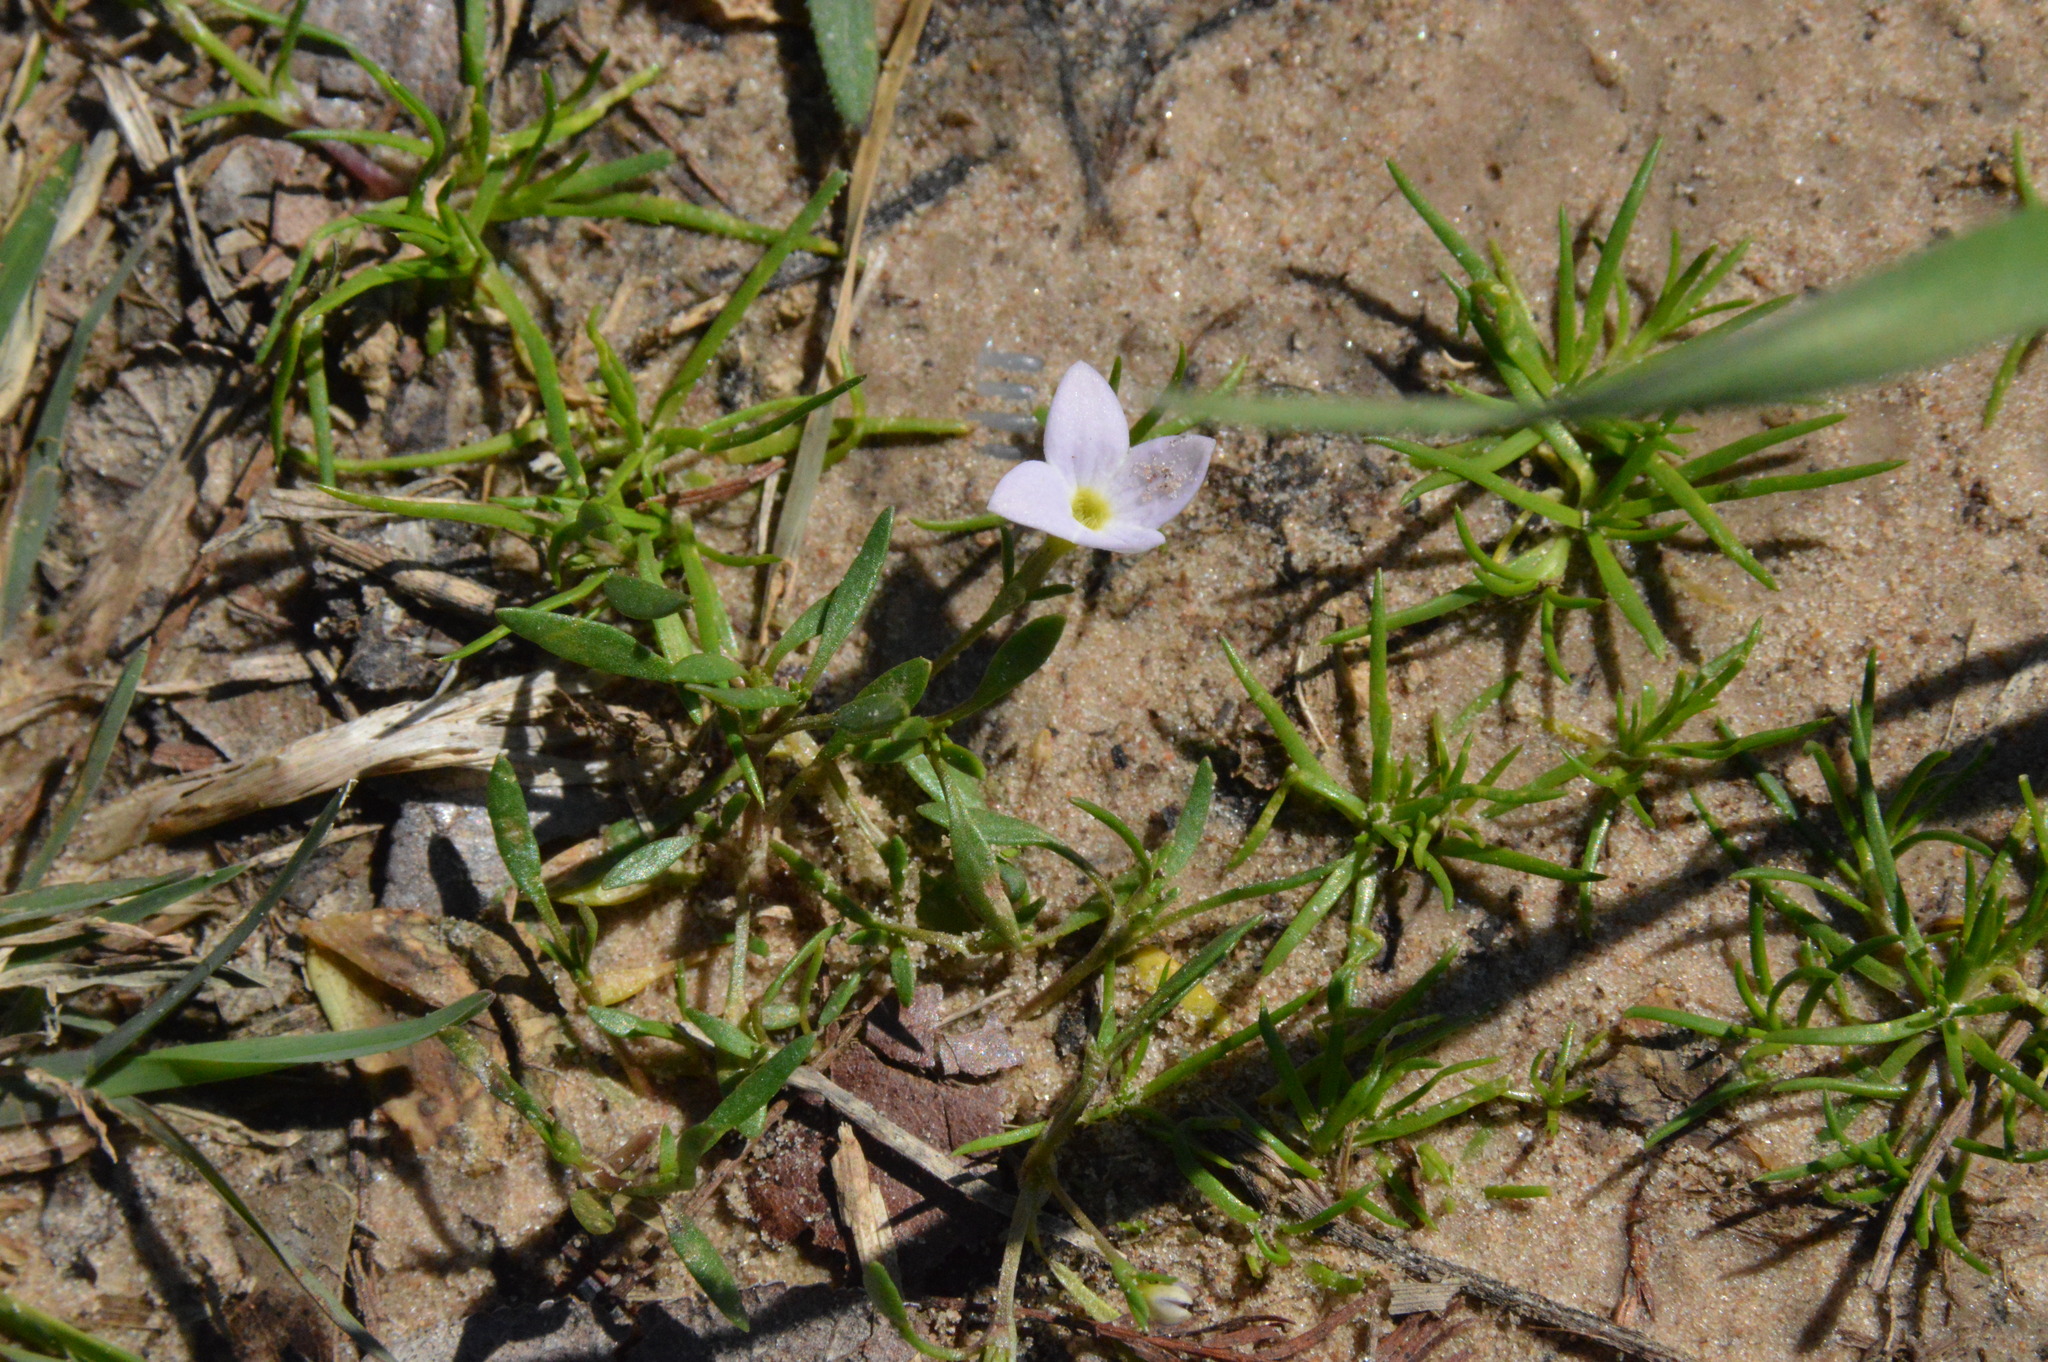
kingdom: Plantae
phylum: Tracheophyta
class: Magnoliopsida
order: Gentianales
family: Rubiaceae
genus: Houstonia
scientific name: Houstonia rosea
